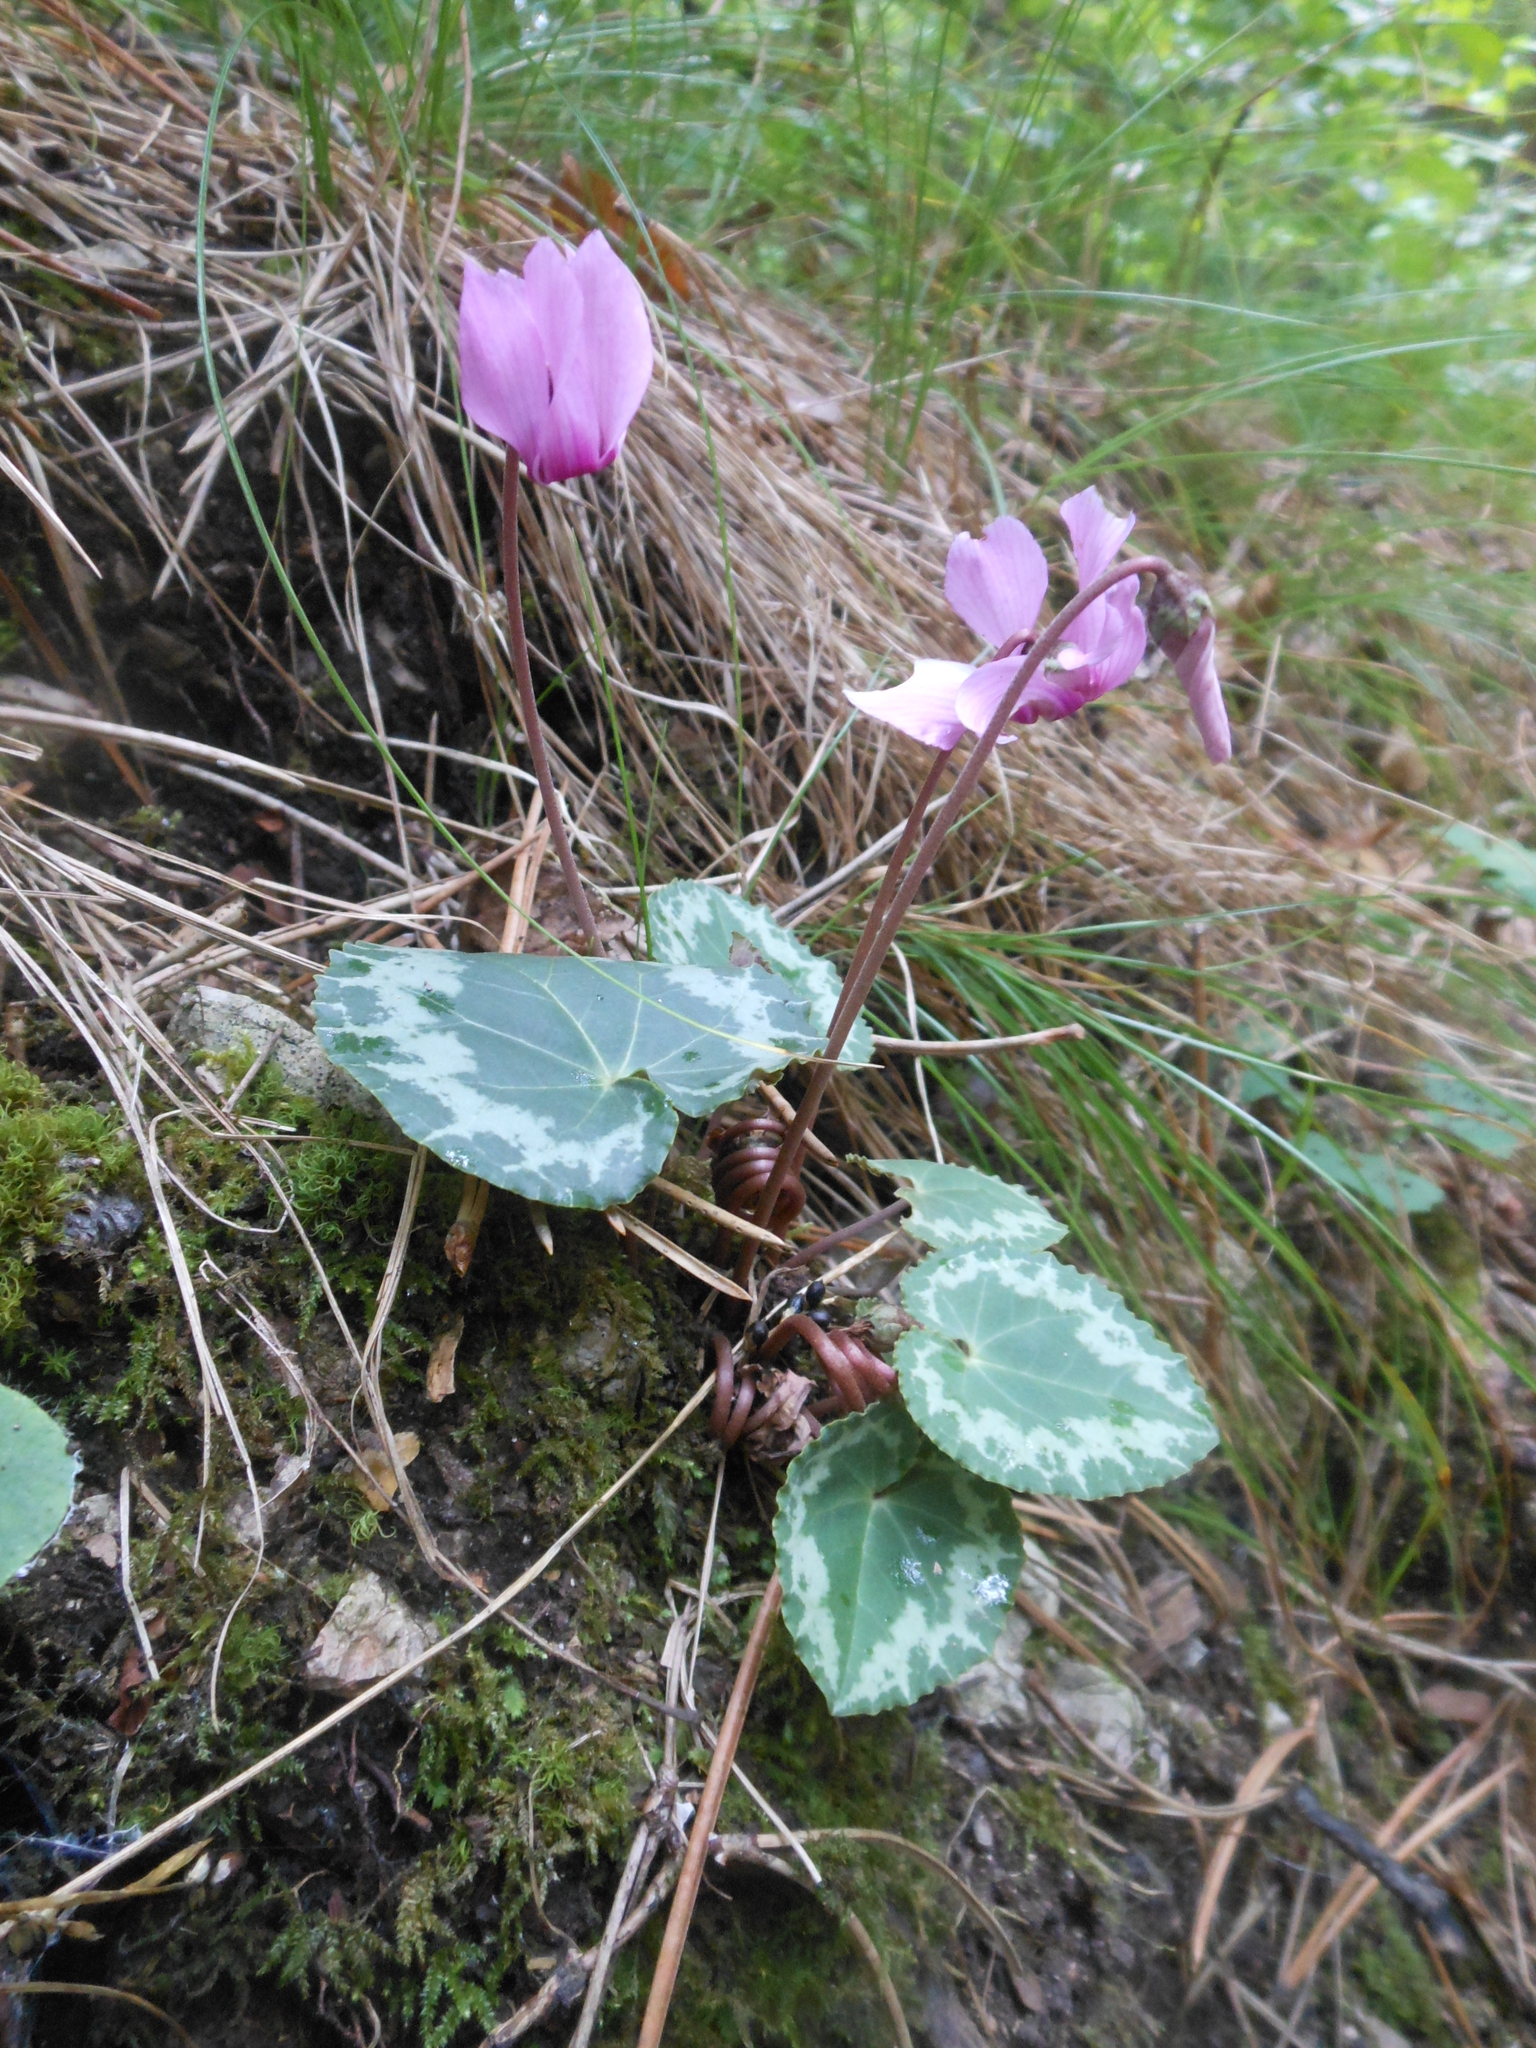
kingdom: Plantae
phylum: Tracheophyta
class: Magnoliopsida
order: Ericales
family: Primulaceae
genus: Cyclamen
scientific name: Cyclamen purpurascens
